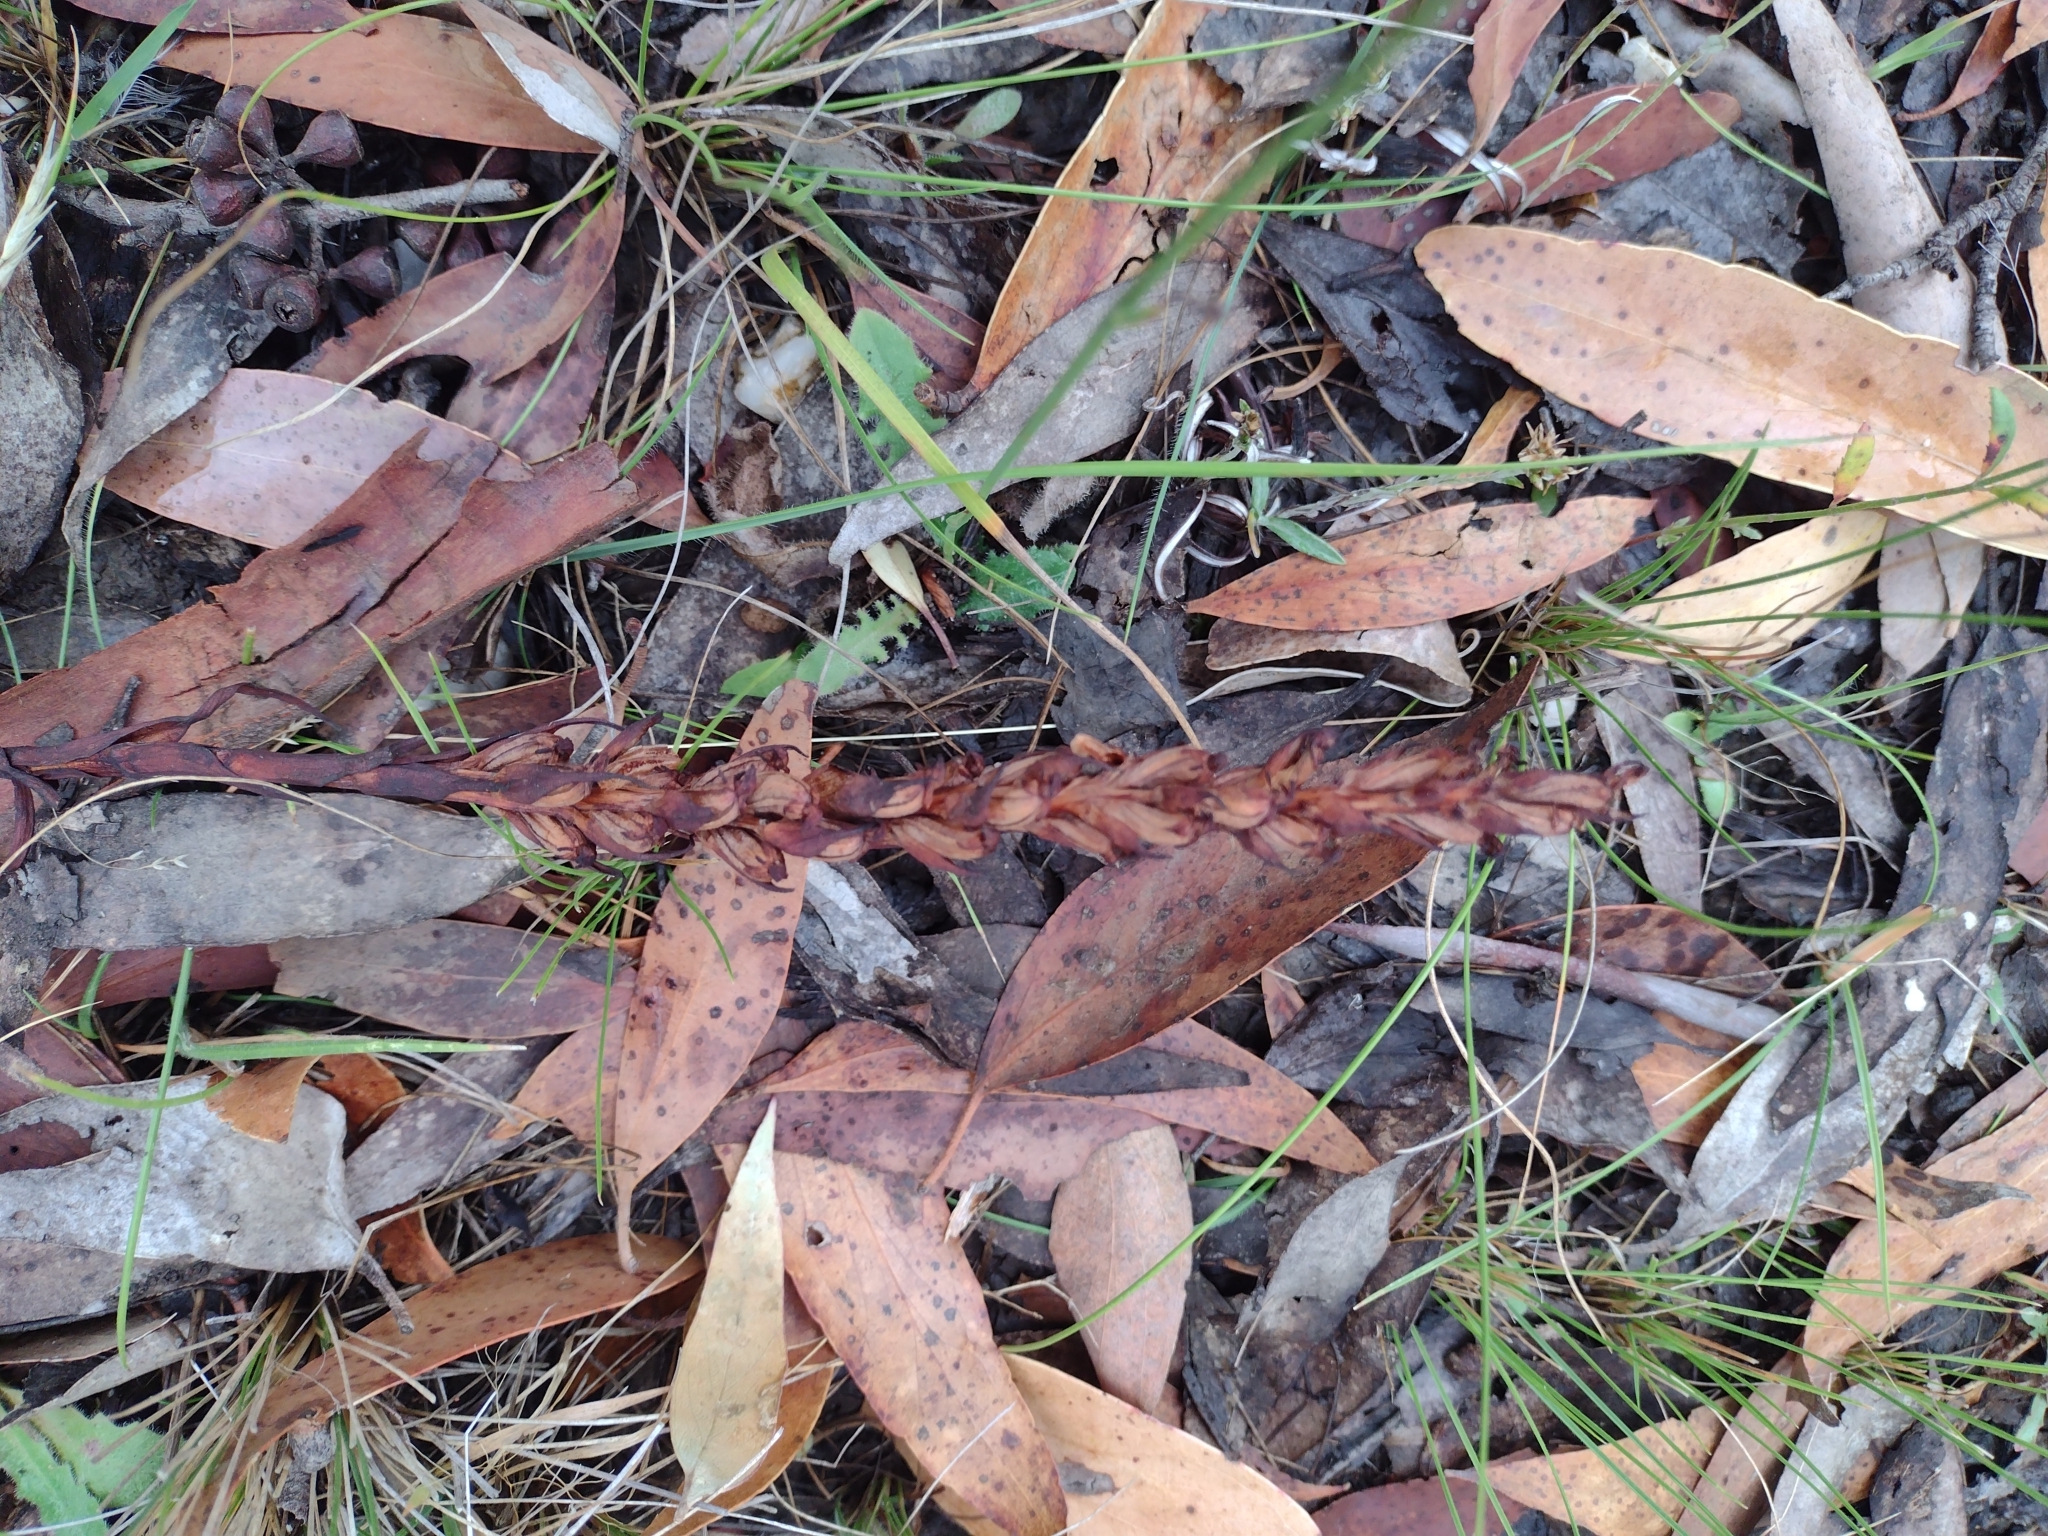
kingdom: Plantae
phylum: Tracheophyta
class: Liliopsida
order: Asparagales
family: Orchidaceae
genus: Disa
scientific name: Disa bracteata
